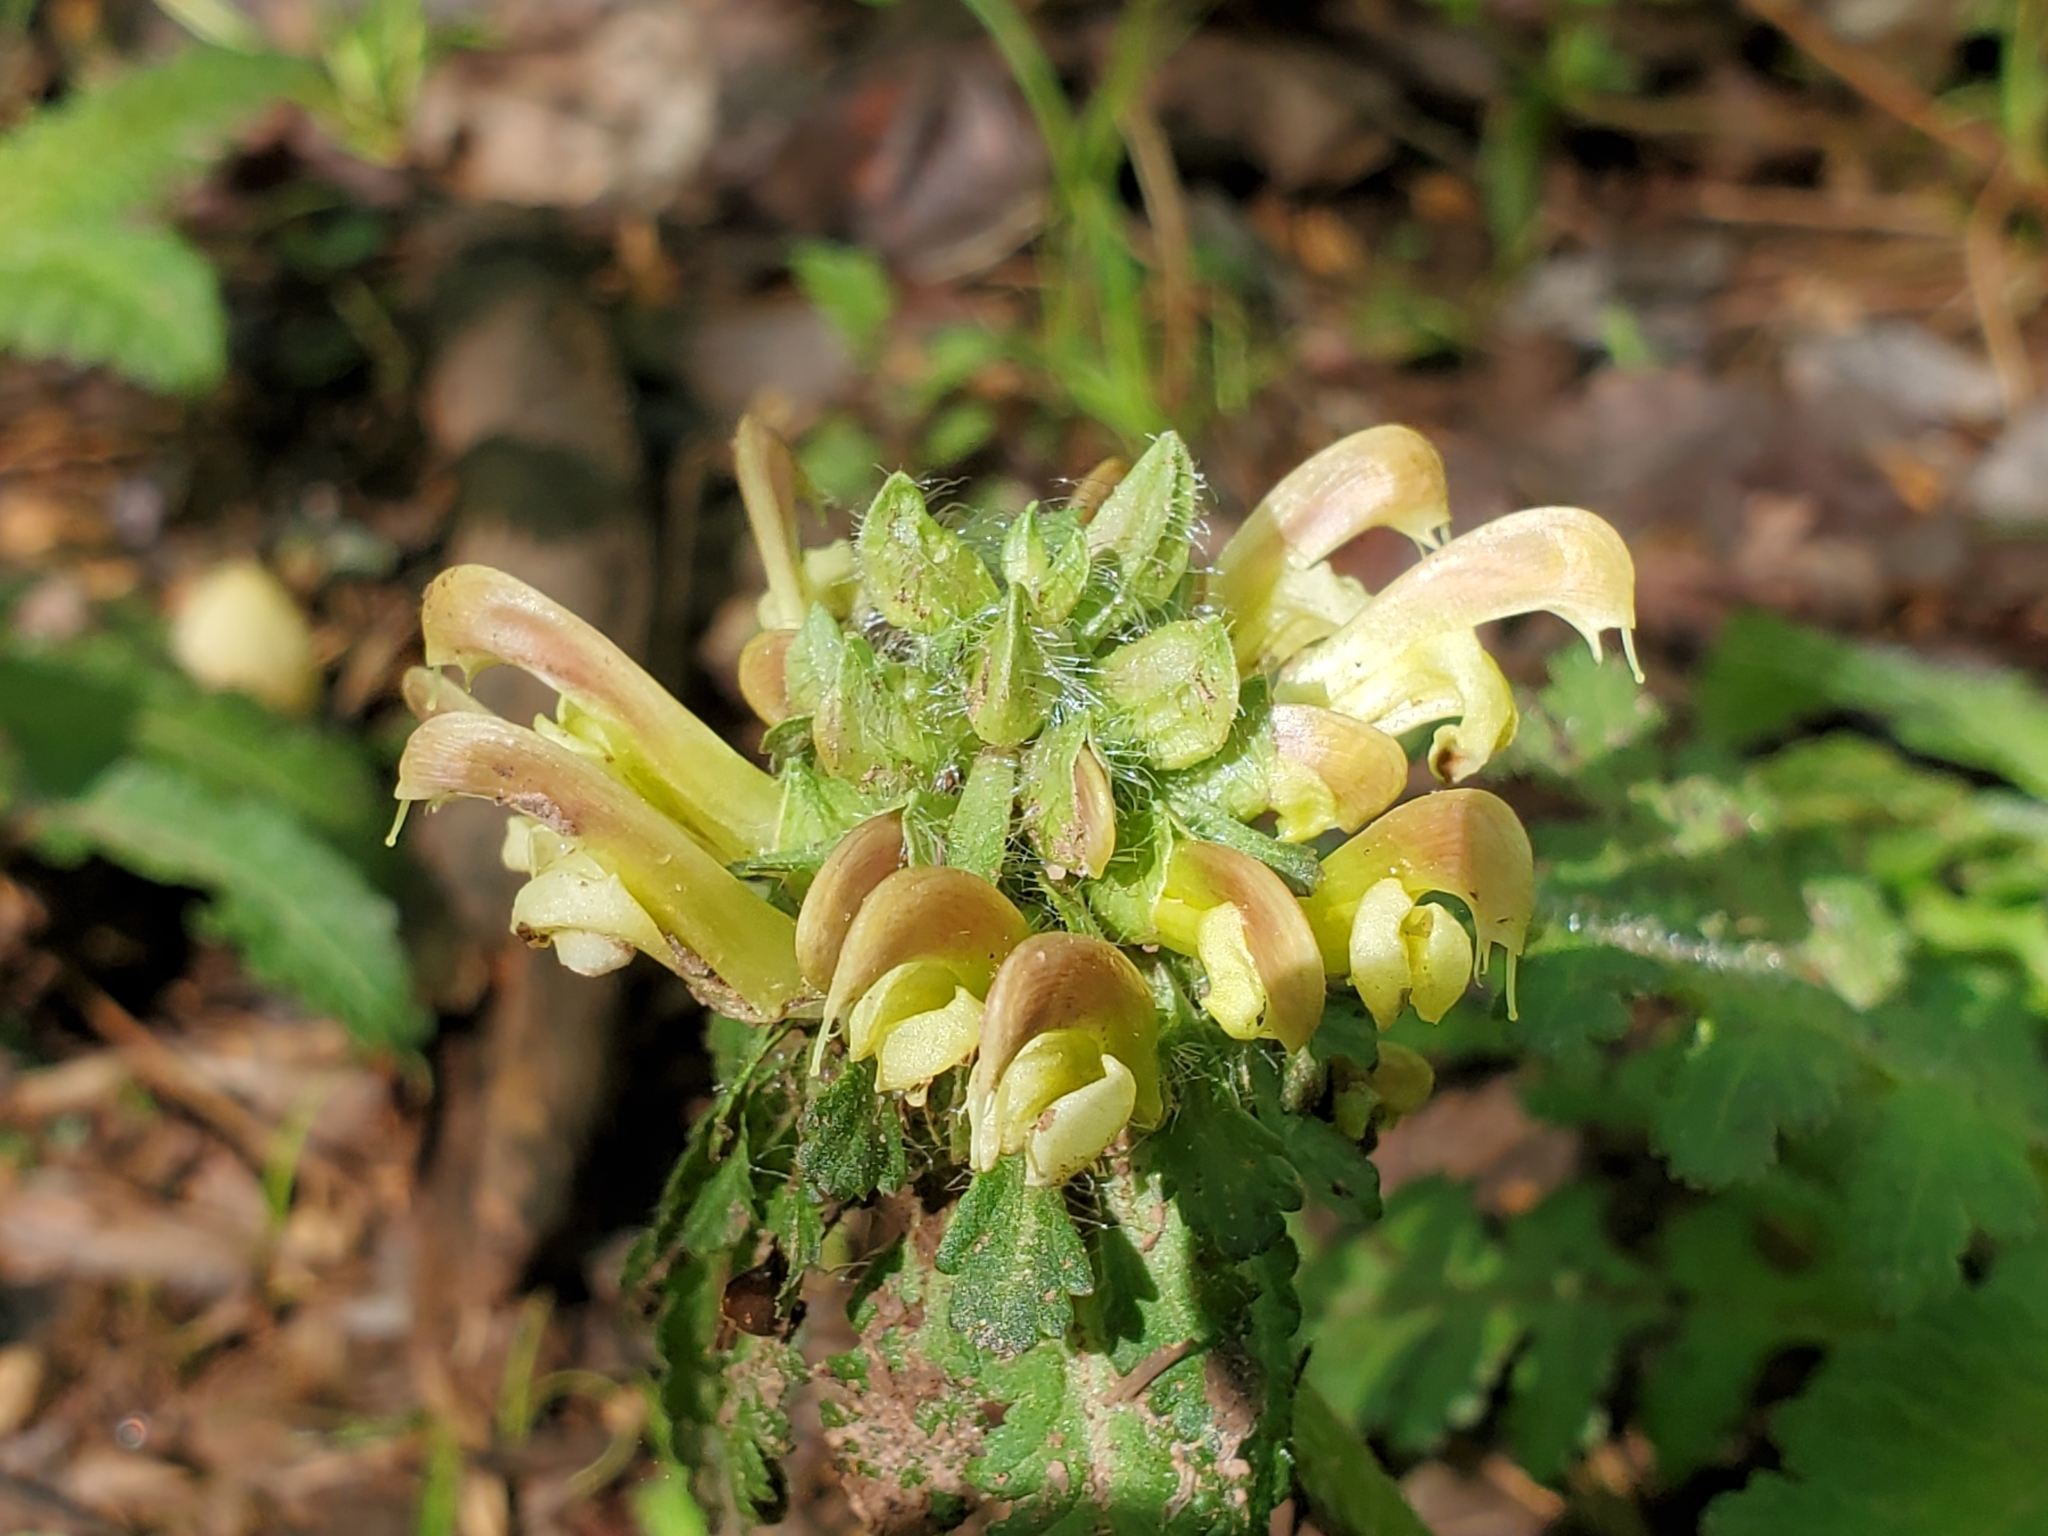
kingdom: Plantae
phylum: Tracheophyta
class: Magnoliopsida
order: Lamiales
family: Orobanchaceae
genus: Pedicularis
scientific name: Pedicularis canadensis
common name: Early lousewort
